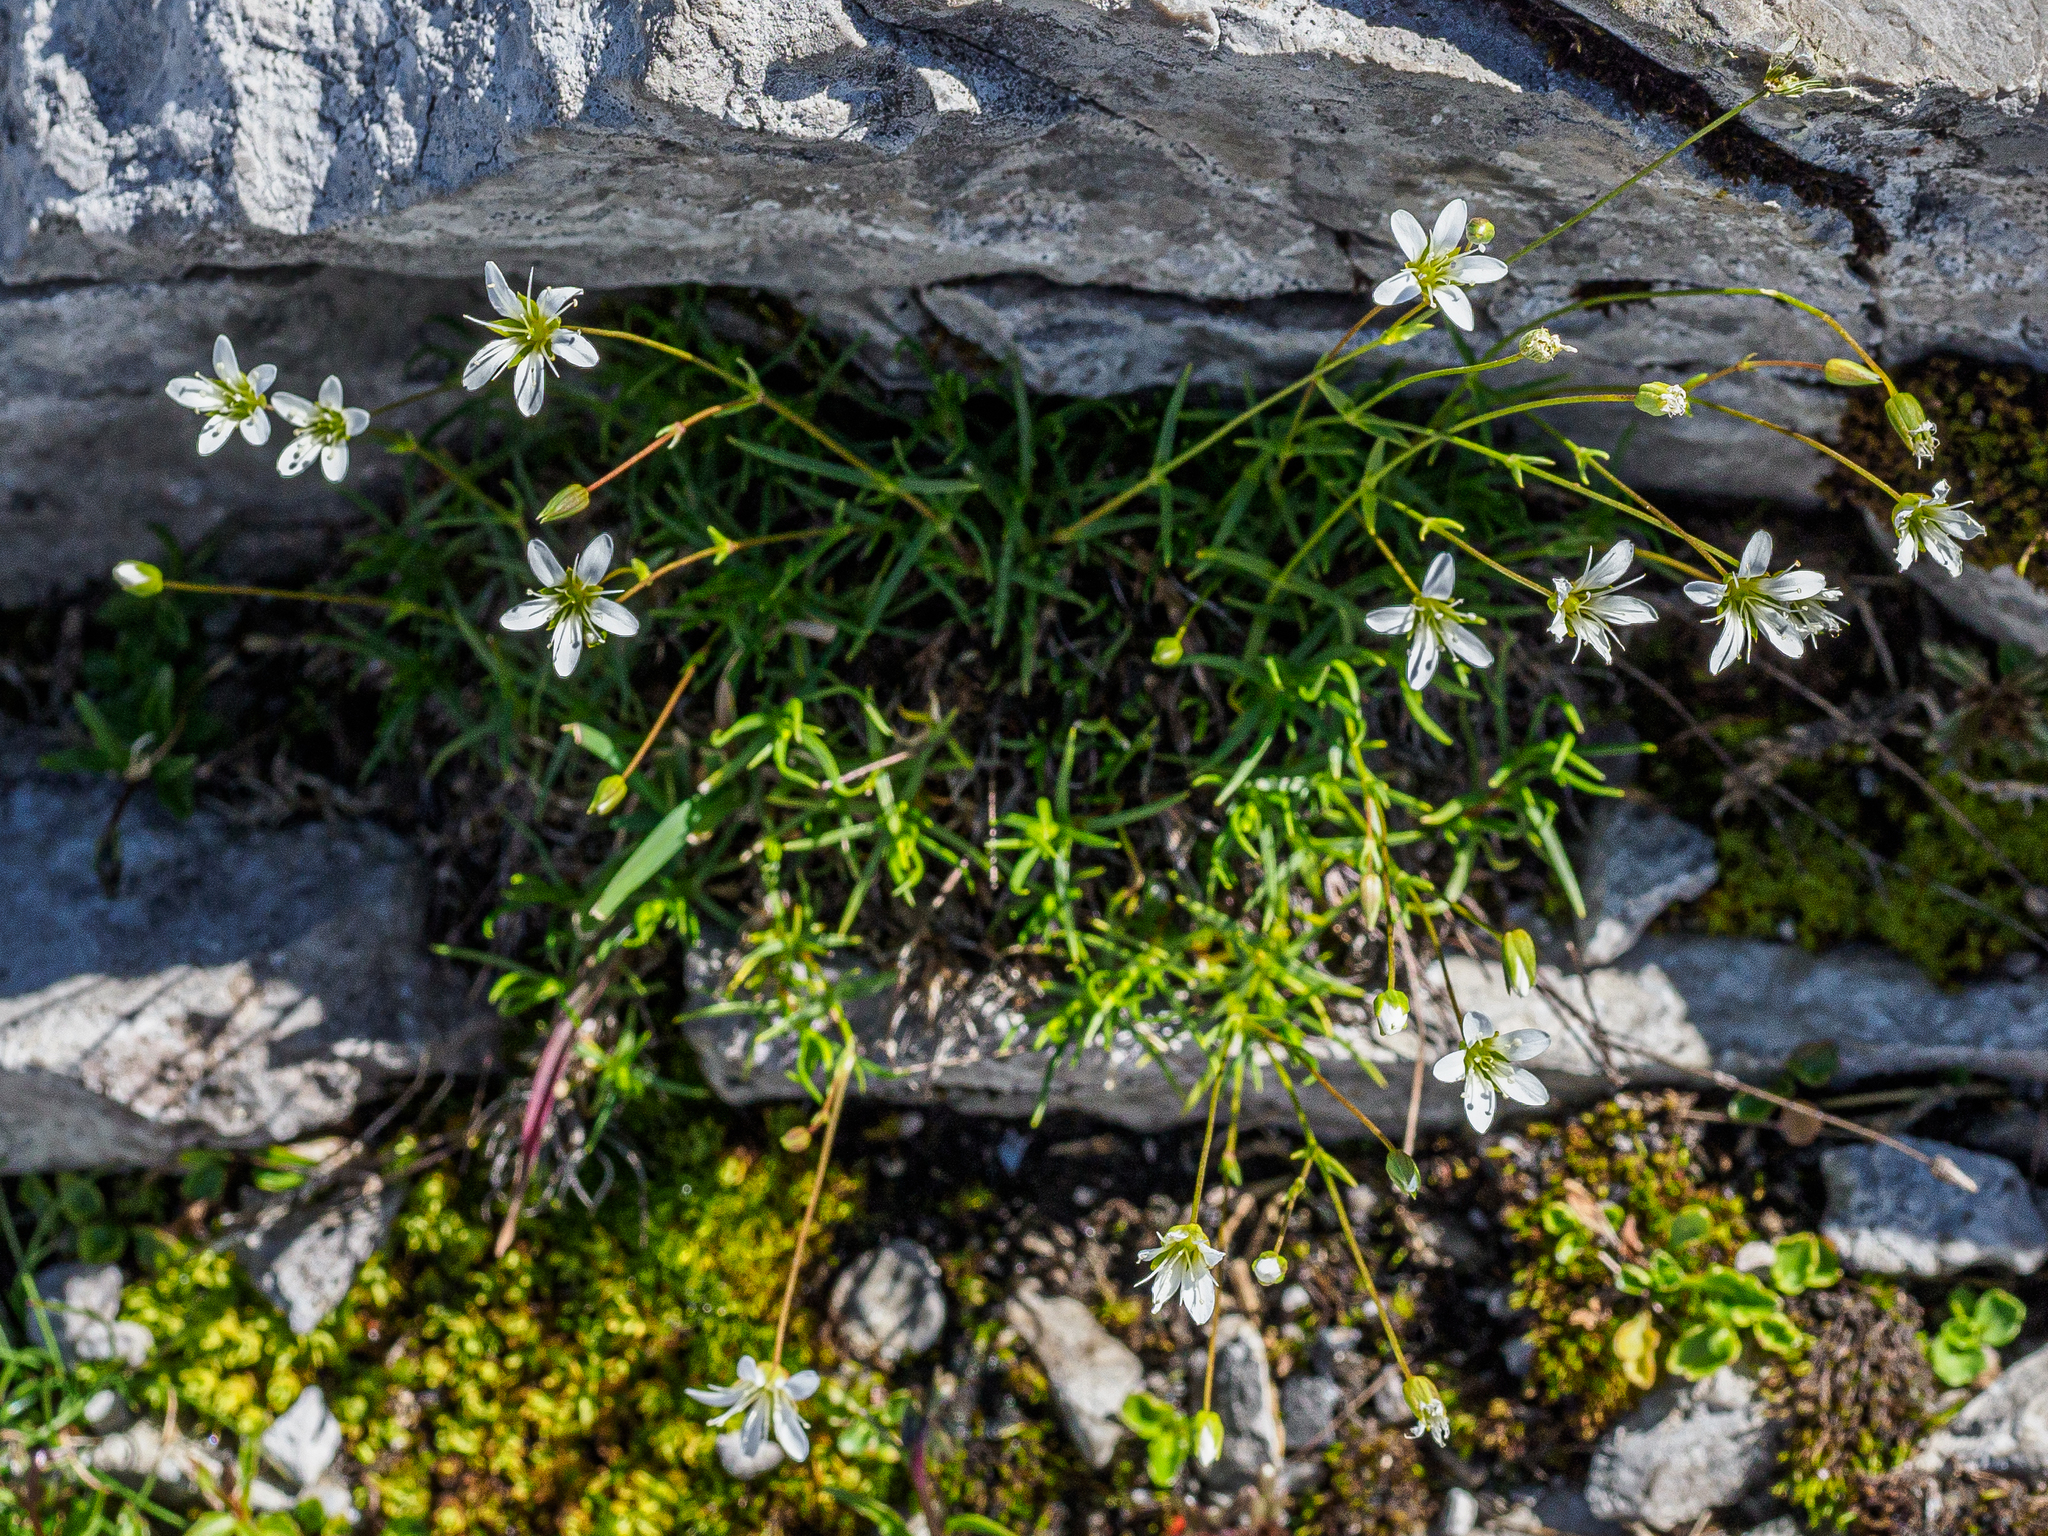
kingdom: Plantae
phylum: Tracheophyta
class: Magnoliopsida
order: Caryophyllales
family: Caryophyllaceae
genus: Sabulina
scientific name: Sabulina austriaca
